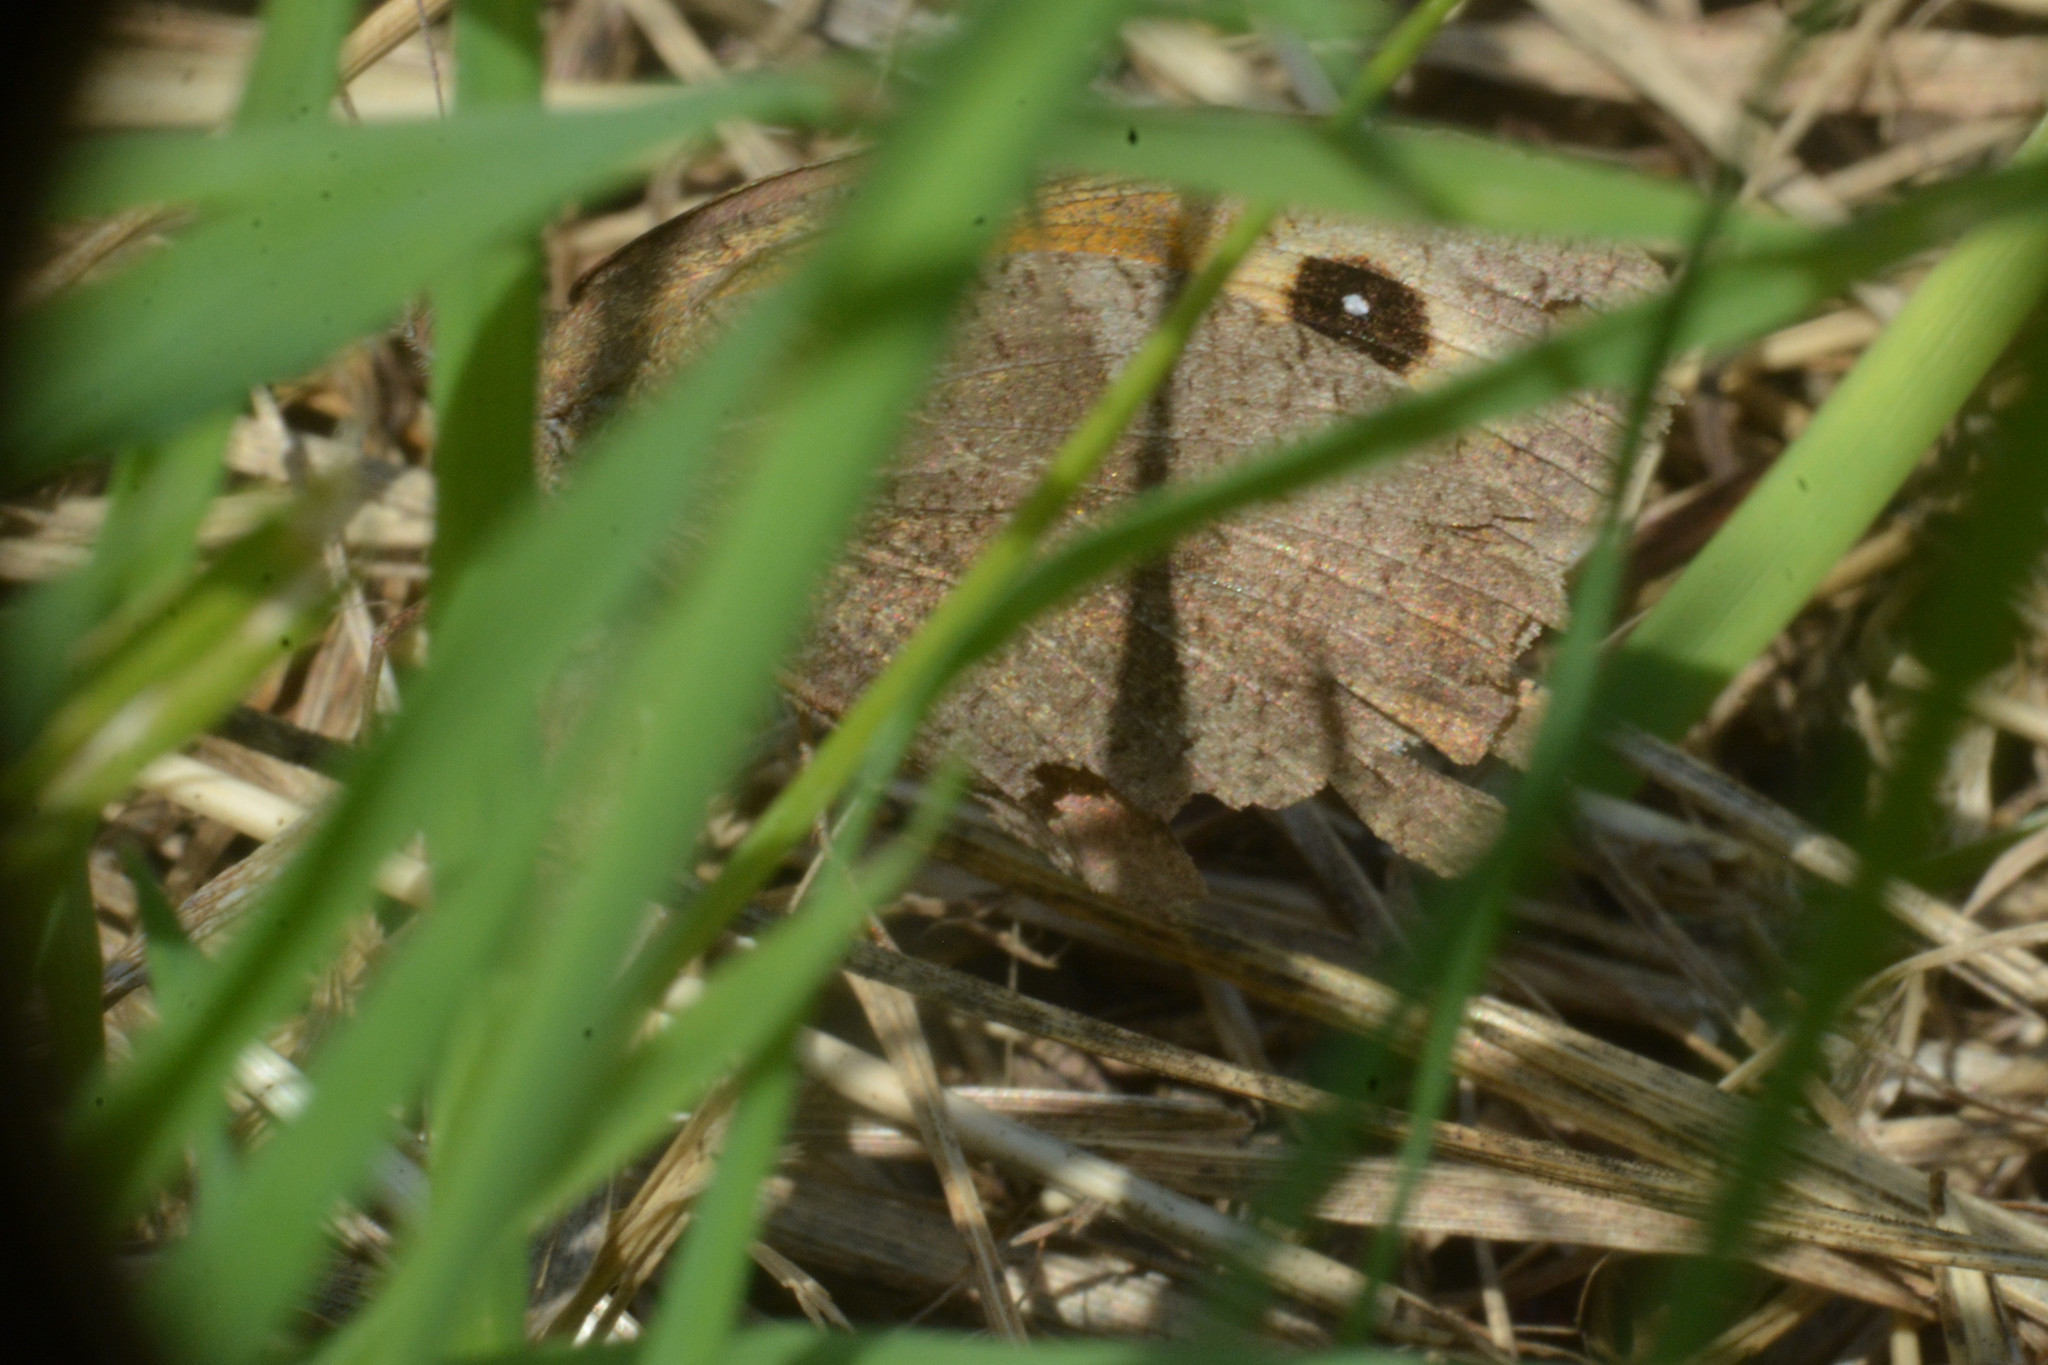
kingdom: Animalia
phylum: Arthropoda
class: Insecta
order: Lepidoptera
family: Nymphalidae
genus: Maniola
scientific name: Maniola jurtina
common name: Meadow brown
